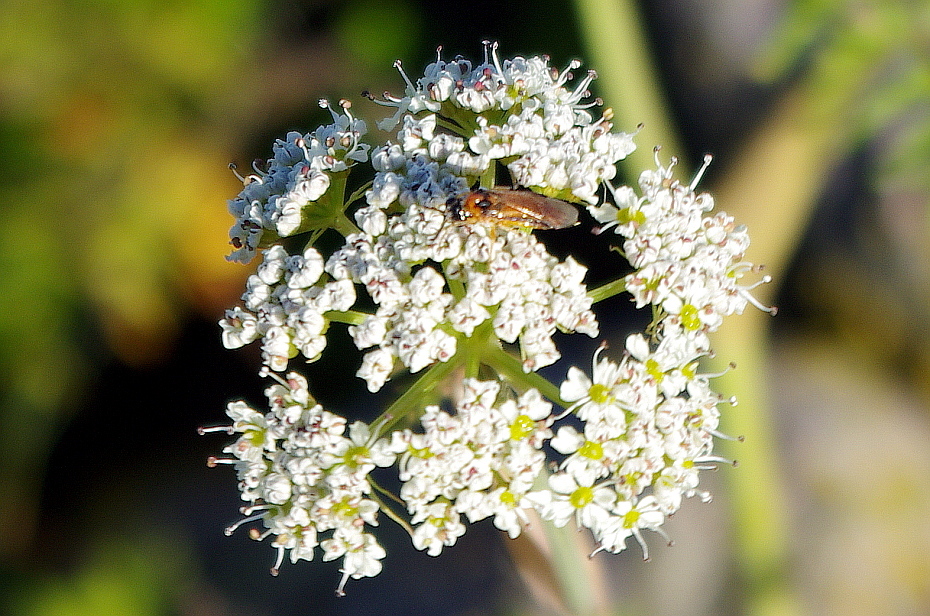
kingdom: Animalia
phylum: Arthropoda
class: Insecta
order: Hymenoptera
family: Tenthredinidae
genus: Athalia
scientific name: Athalia rosae
